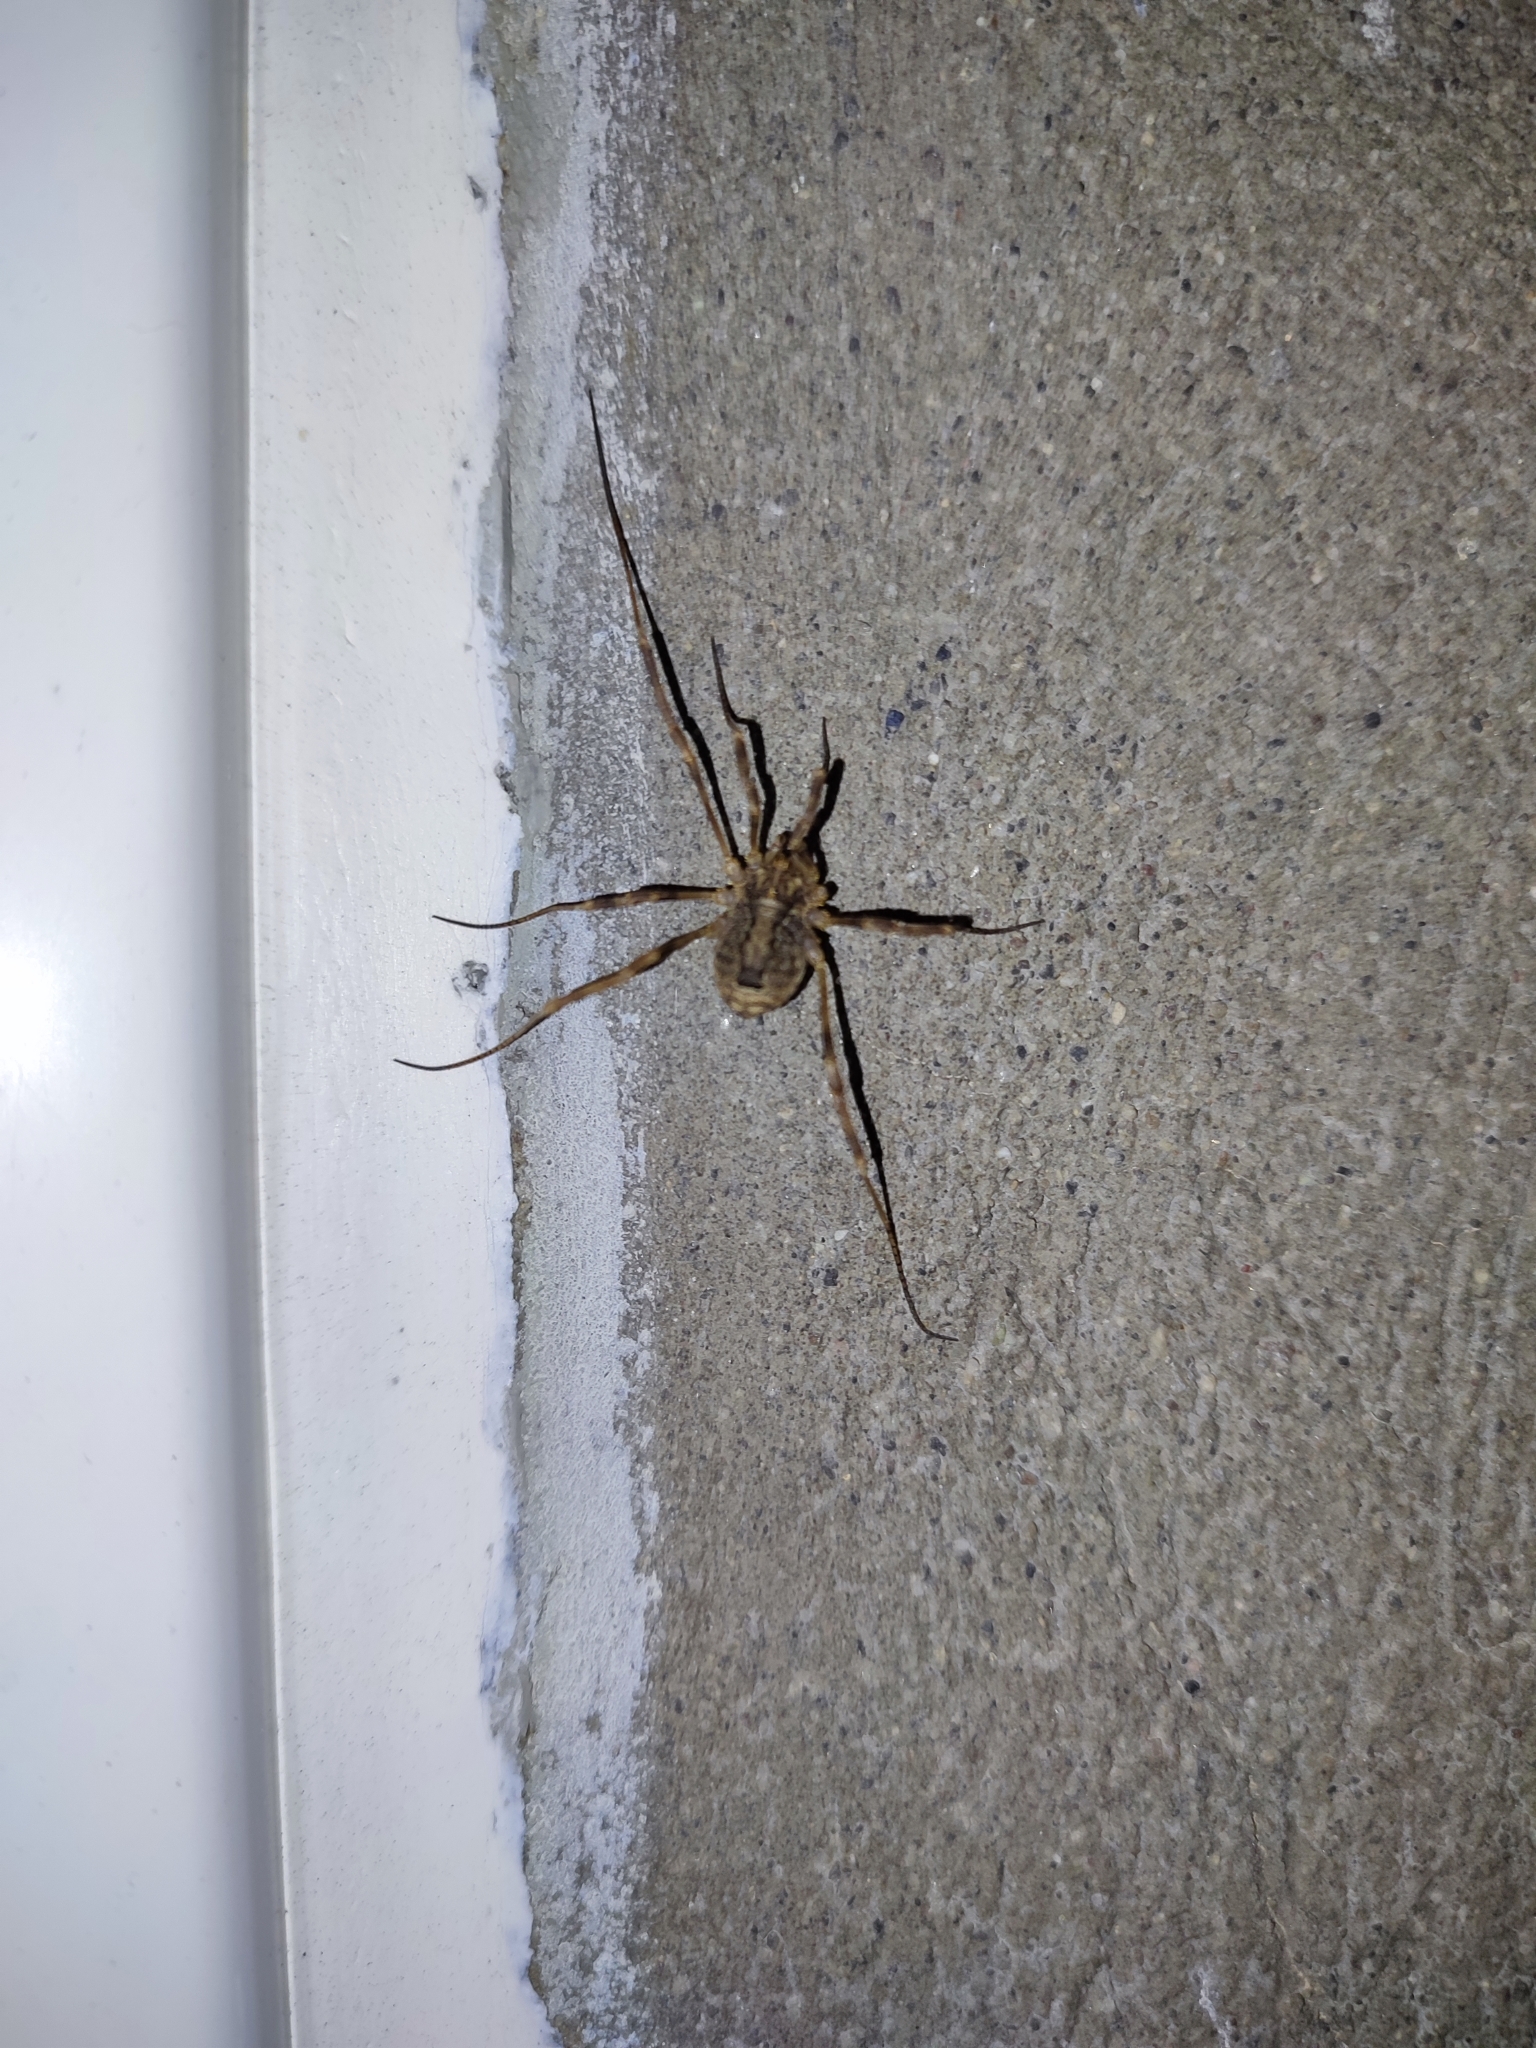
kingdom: Animalia
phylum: Arthropoda
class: Arachnida
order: Opiliones
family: Phalangiidae
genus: Odiellus
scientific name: Odiellus spinosus
